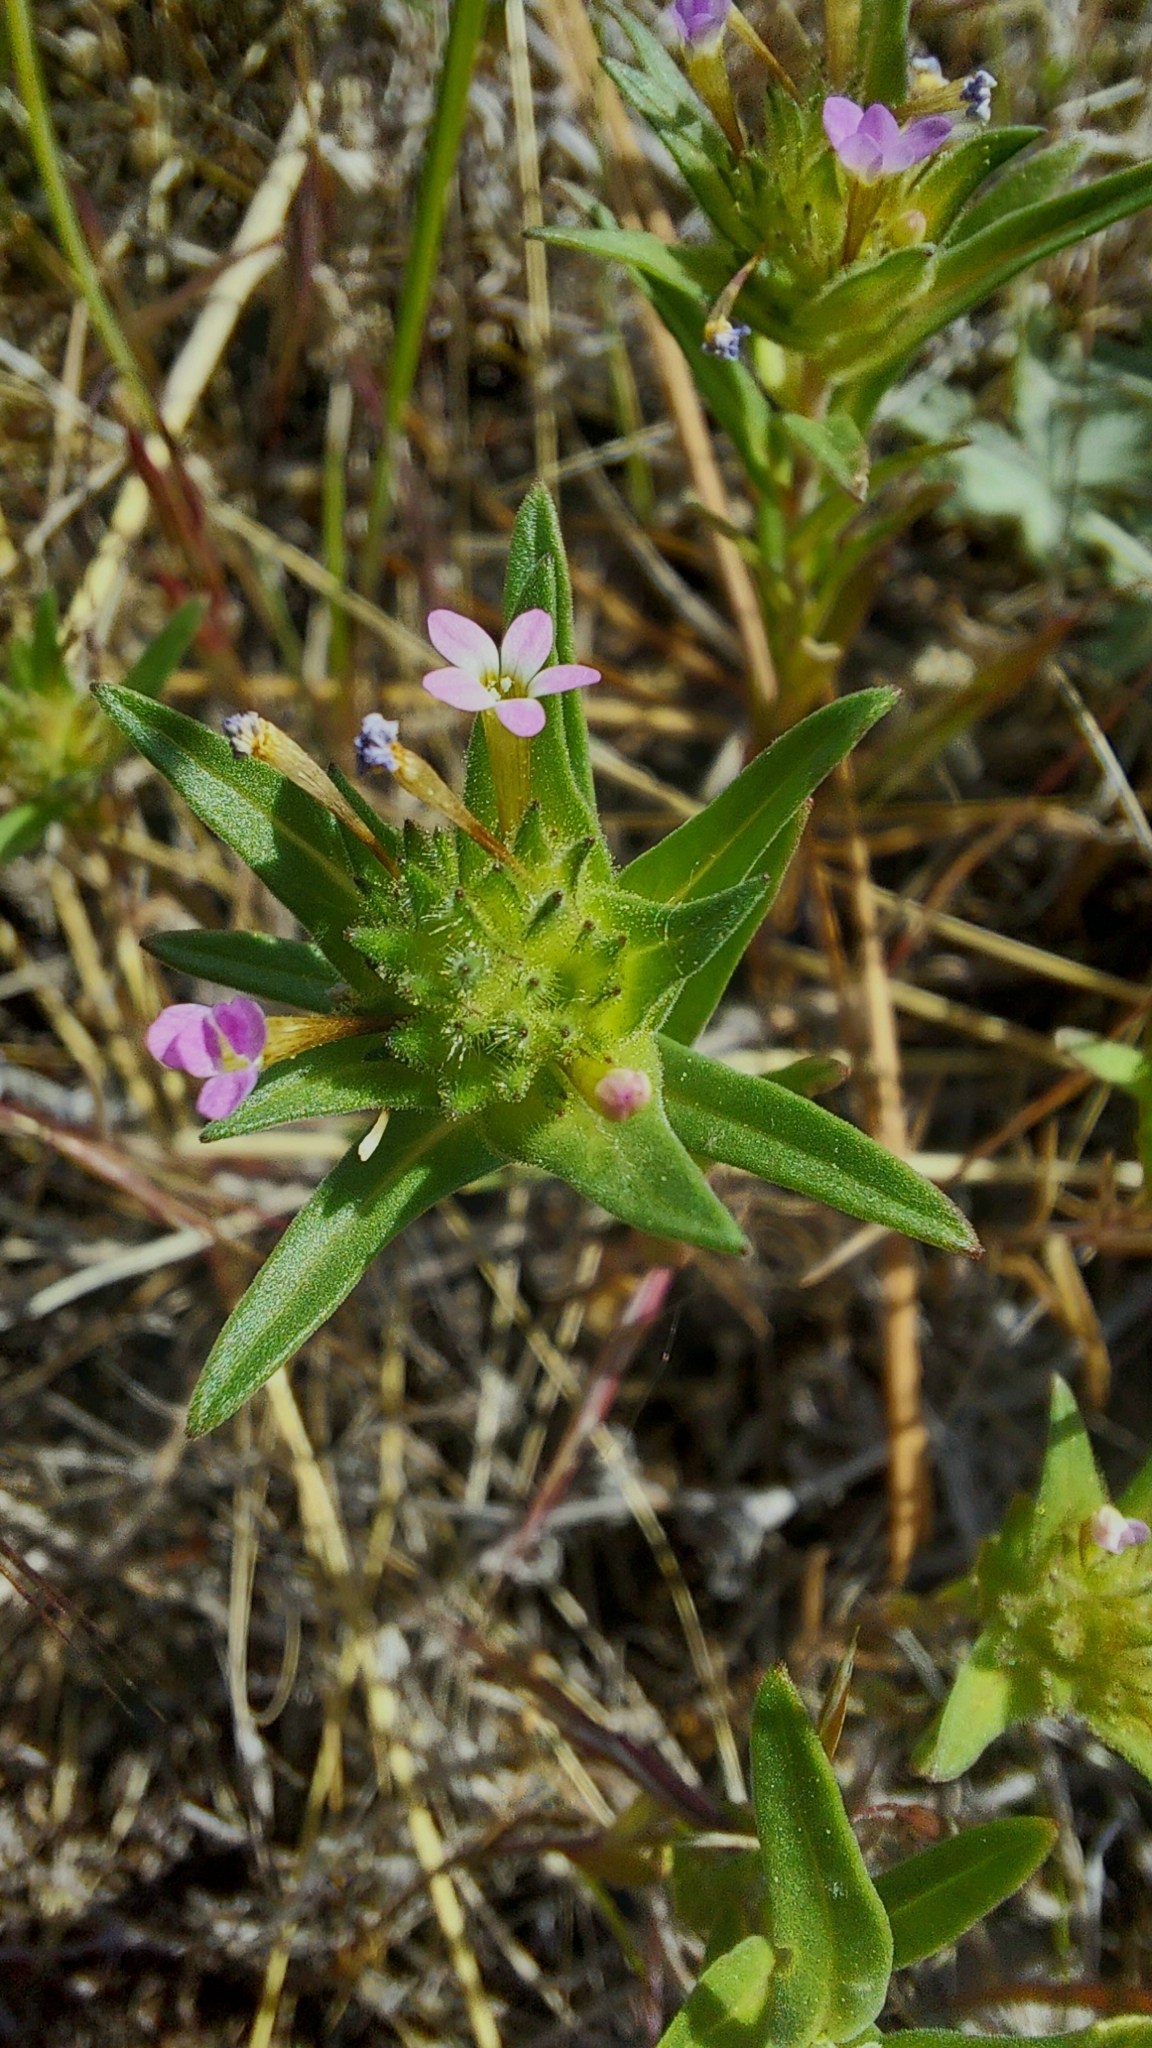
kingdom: Plantae
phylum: Tracheophyta
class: Magnoliopsida
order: Ericales
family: Polemoniaceae
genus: Collomia
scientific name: Collomia linearis
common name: Tiny trumpet
